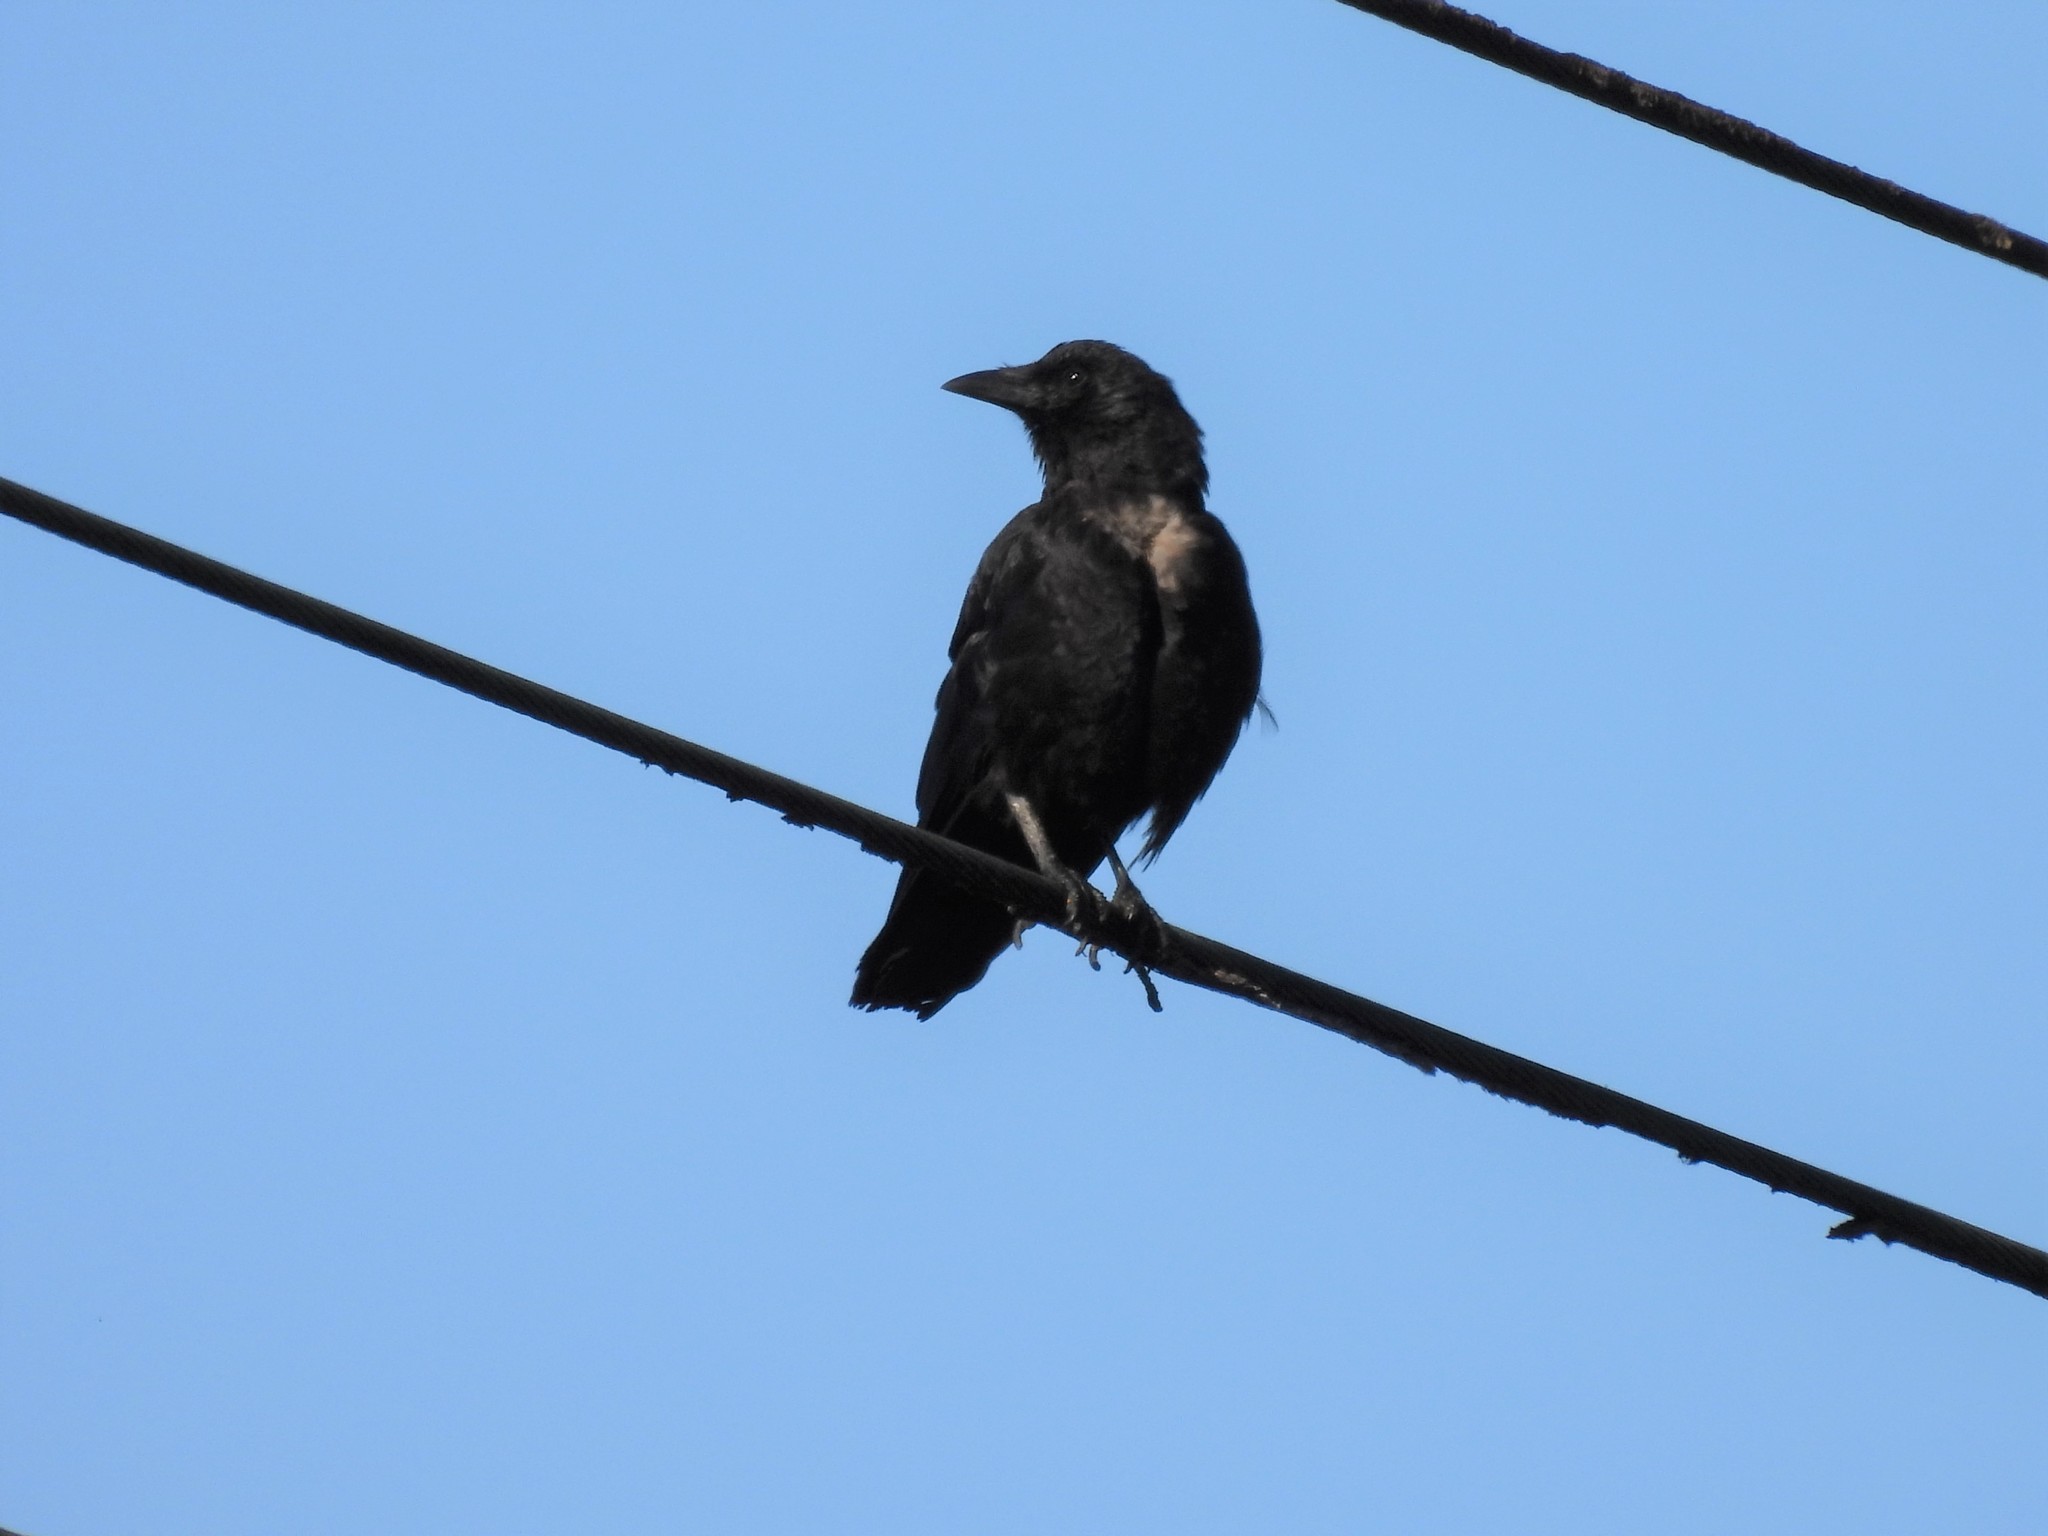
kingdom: Animalia
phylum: Chordata
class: Aves
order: Passeriformes
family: Corvidae
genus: Corvus
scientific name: Corvus brachyrhynchos
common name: American crow
